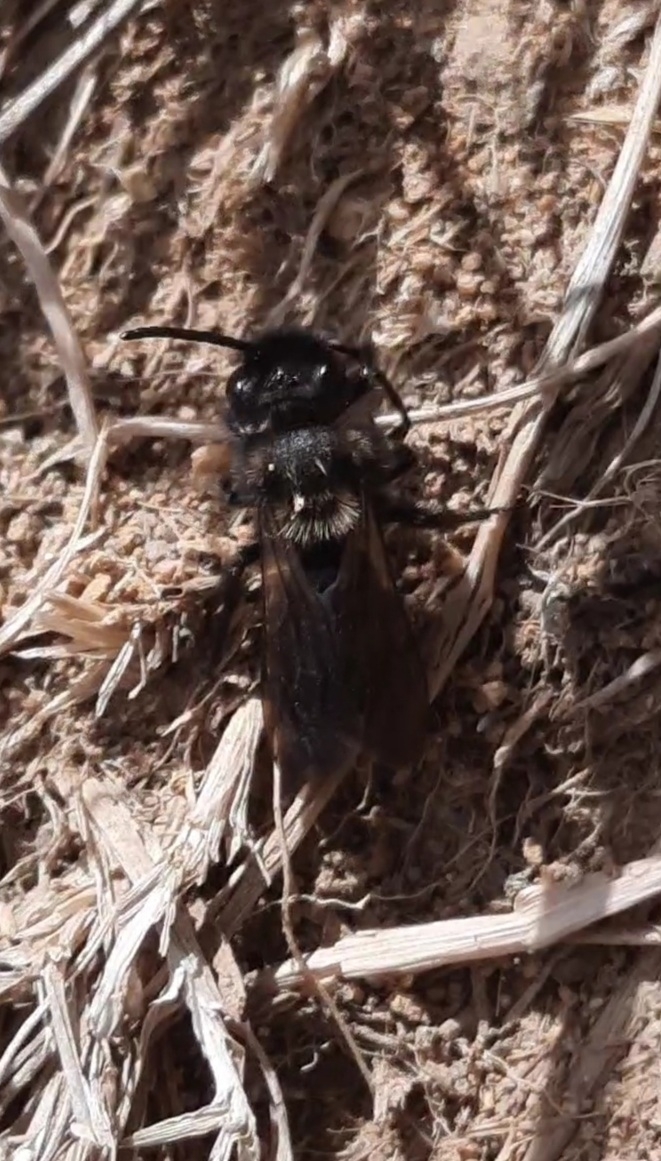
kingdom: Animalia
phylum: Arthropoda
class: Insecta
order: Hymenoptera
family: Andrenidae
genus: Andrena
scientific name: Andrena pilipes
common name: Black mining bee
